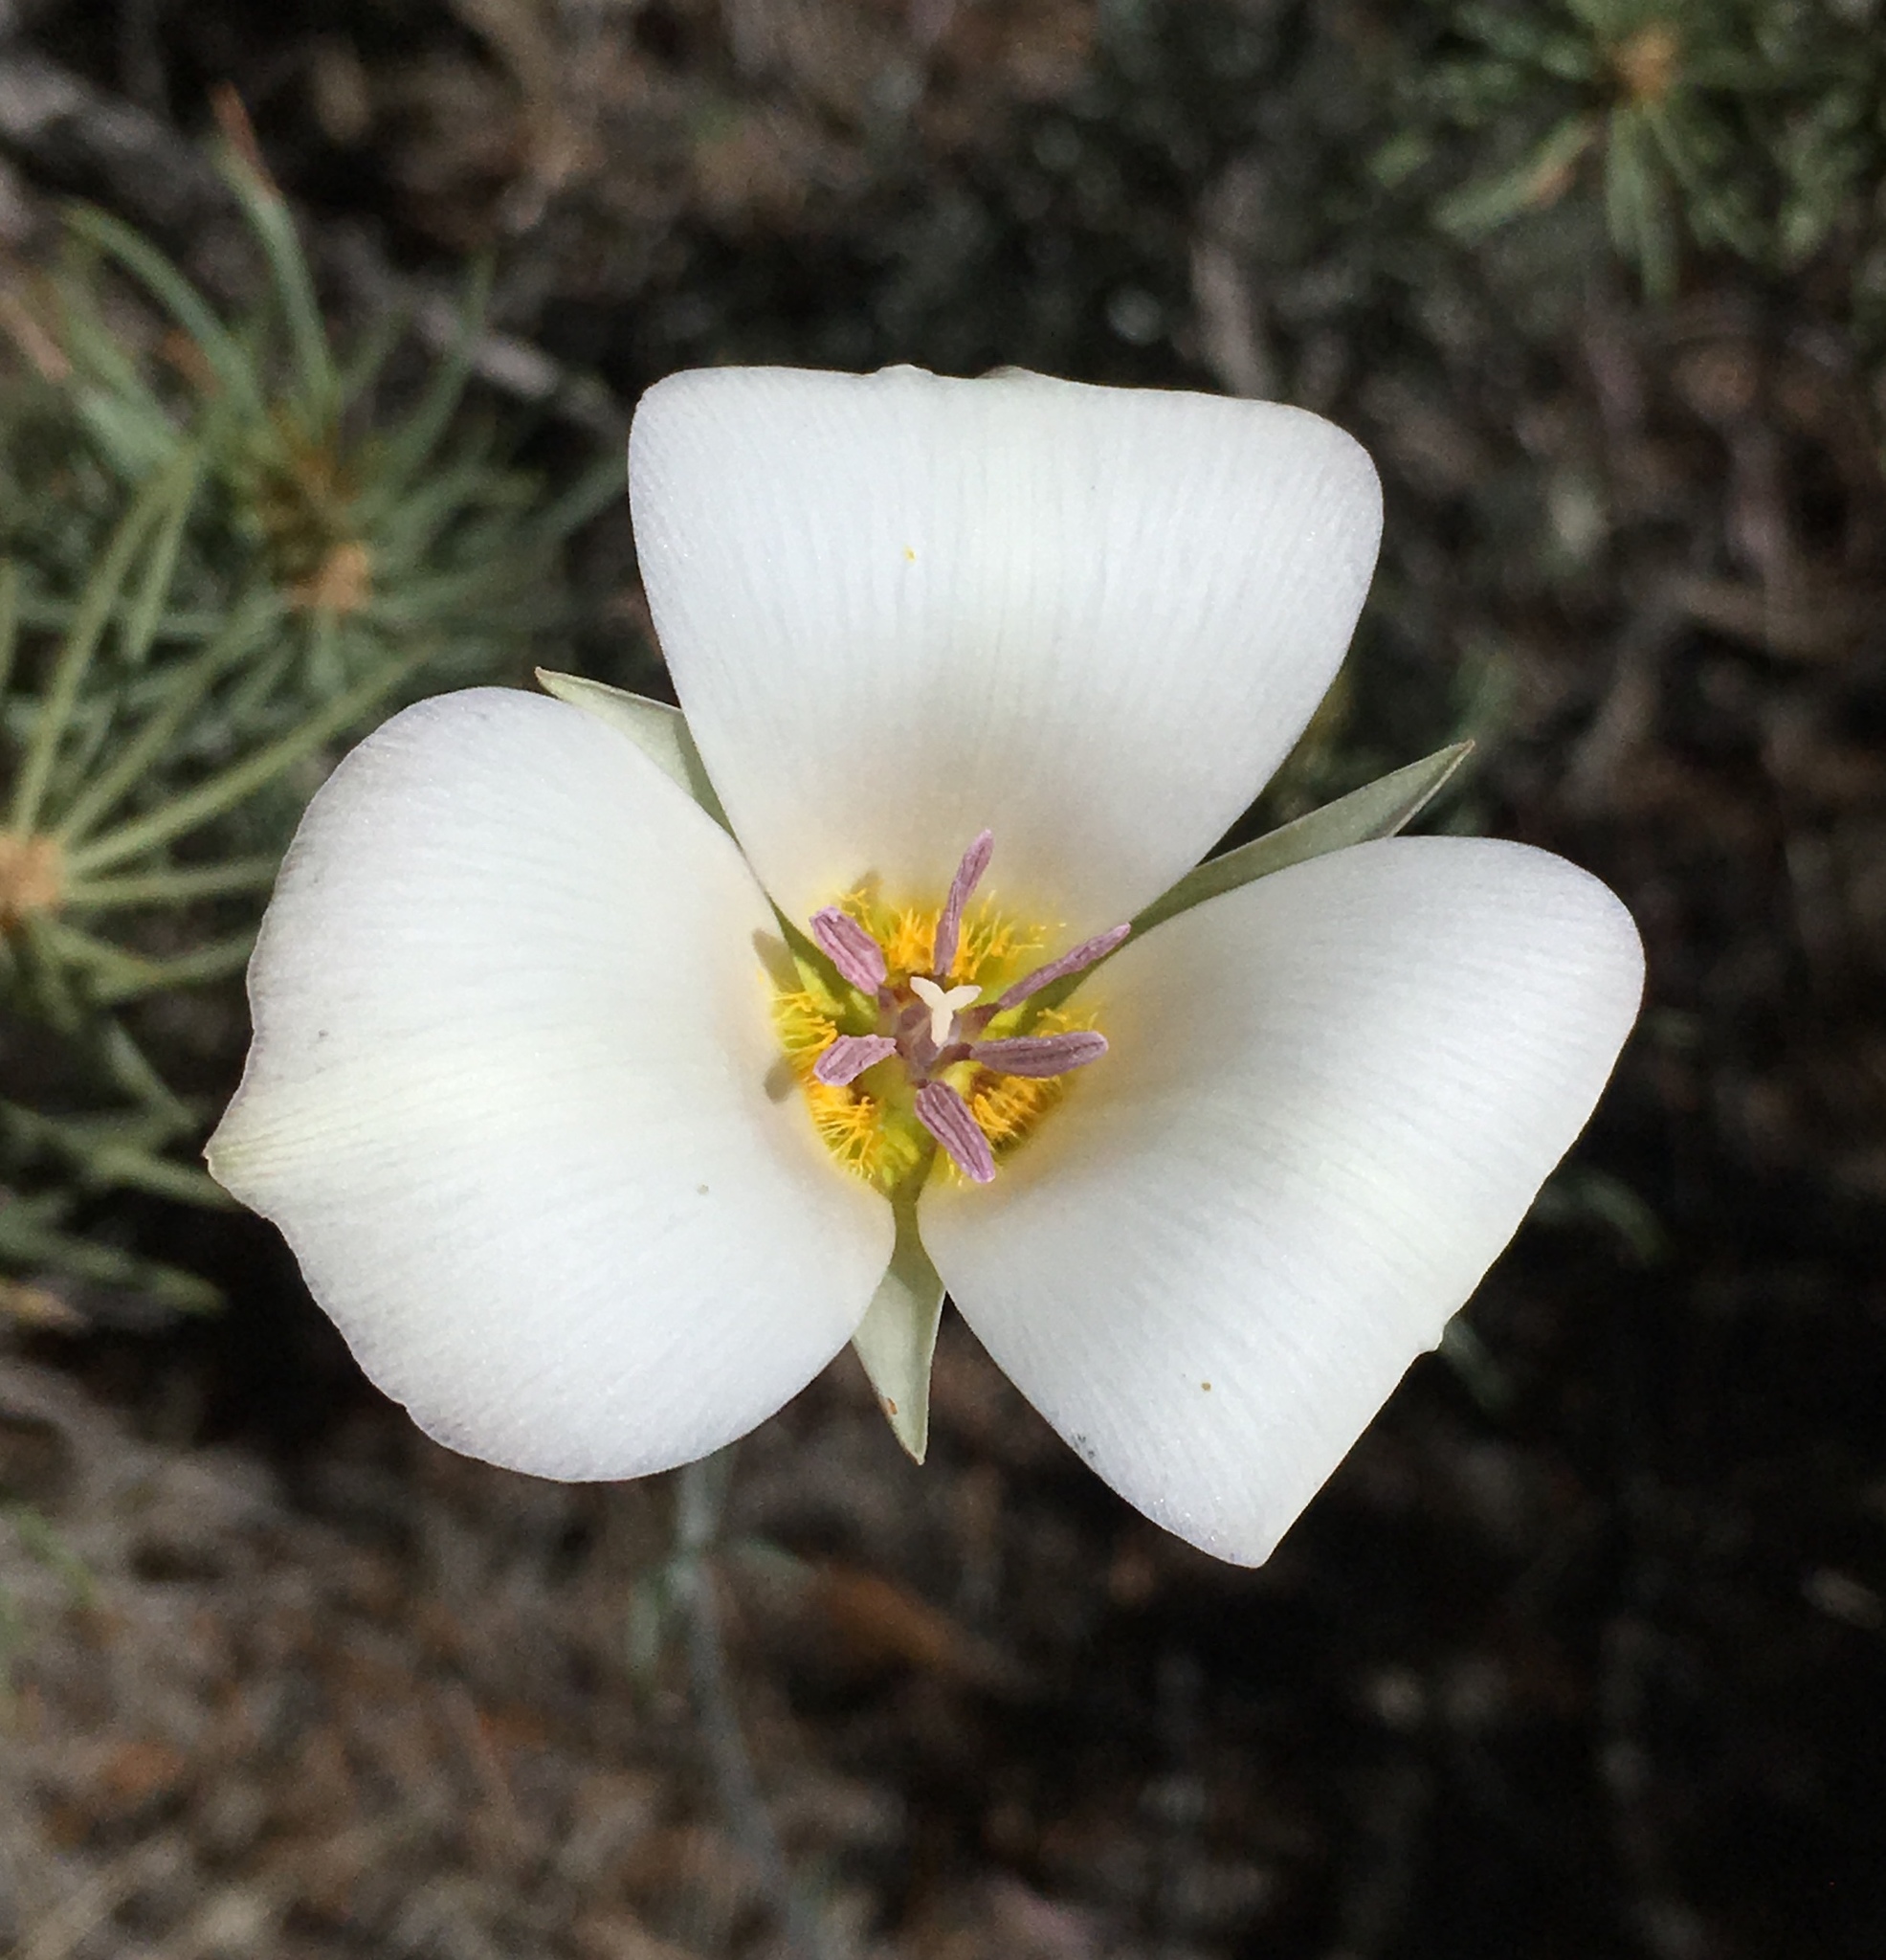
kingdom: Plantae
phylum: Tracheophyta
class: Liliopsida
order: Liliales
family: Liliaceae
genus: Calochortus
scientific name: Calochortus panamintensis
